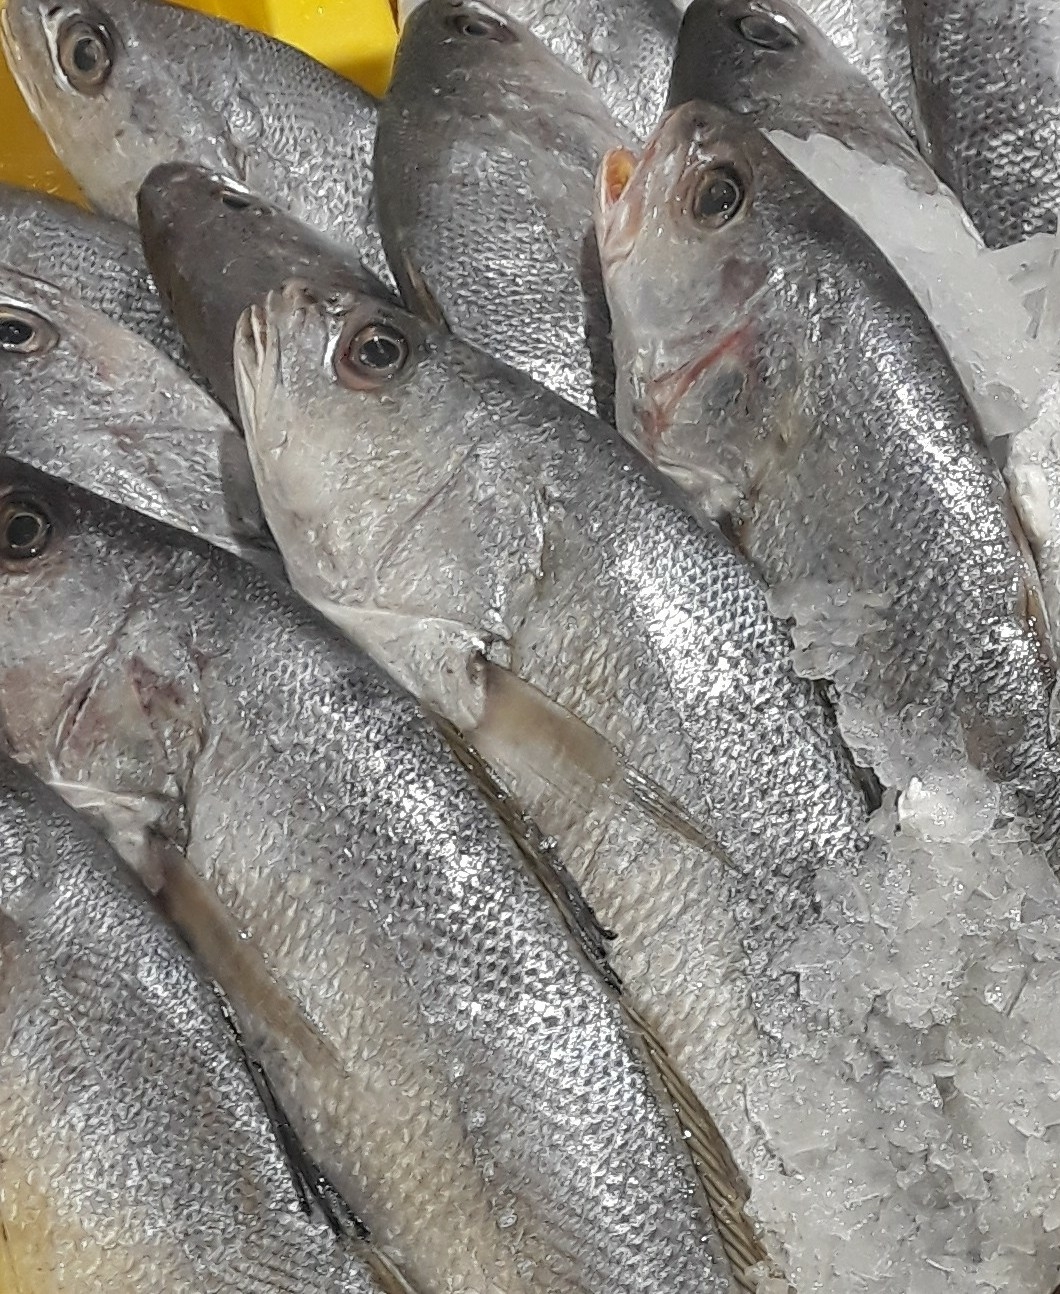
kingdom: Animalia
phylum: Chordata
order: Perciformes
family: Sciaenidae
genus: Argyrosomus
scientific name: Argyrosomus regius
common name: Meagre
